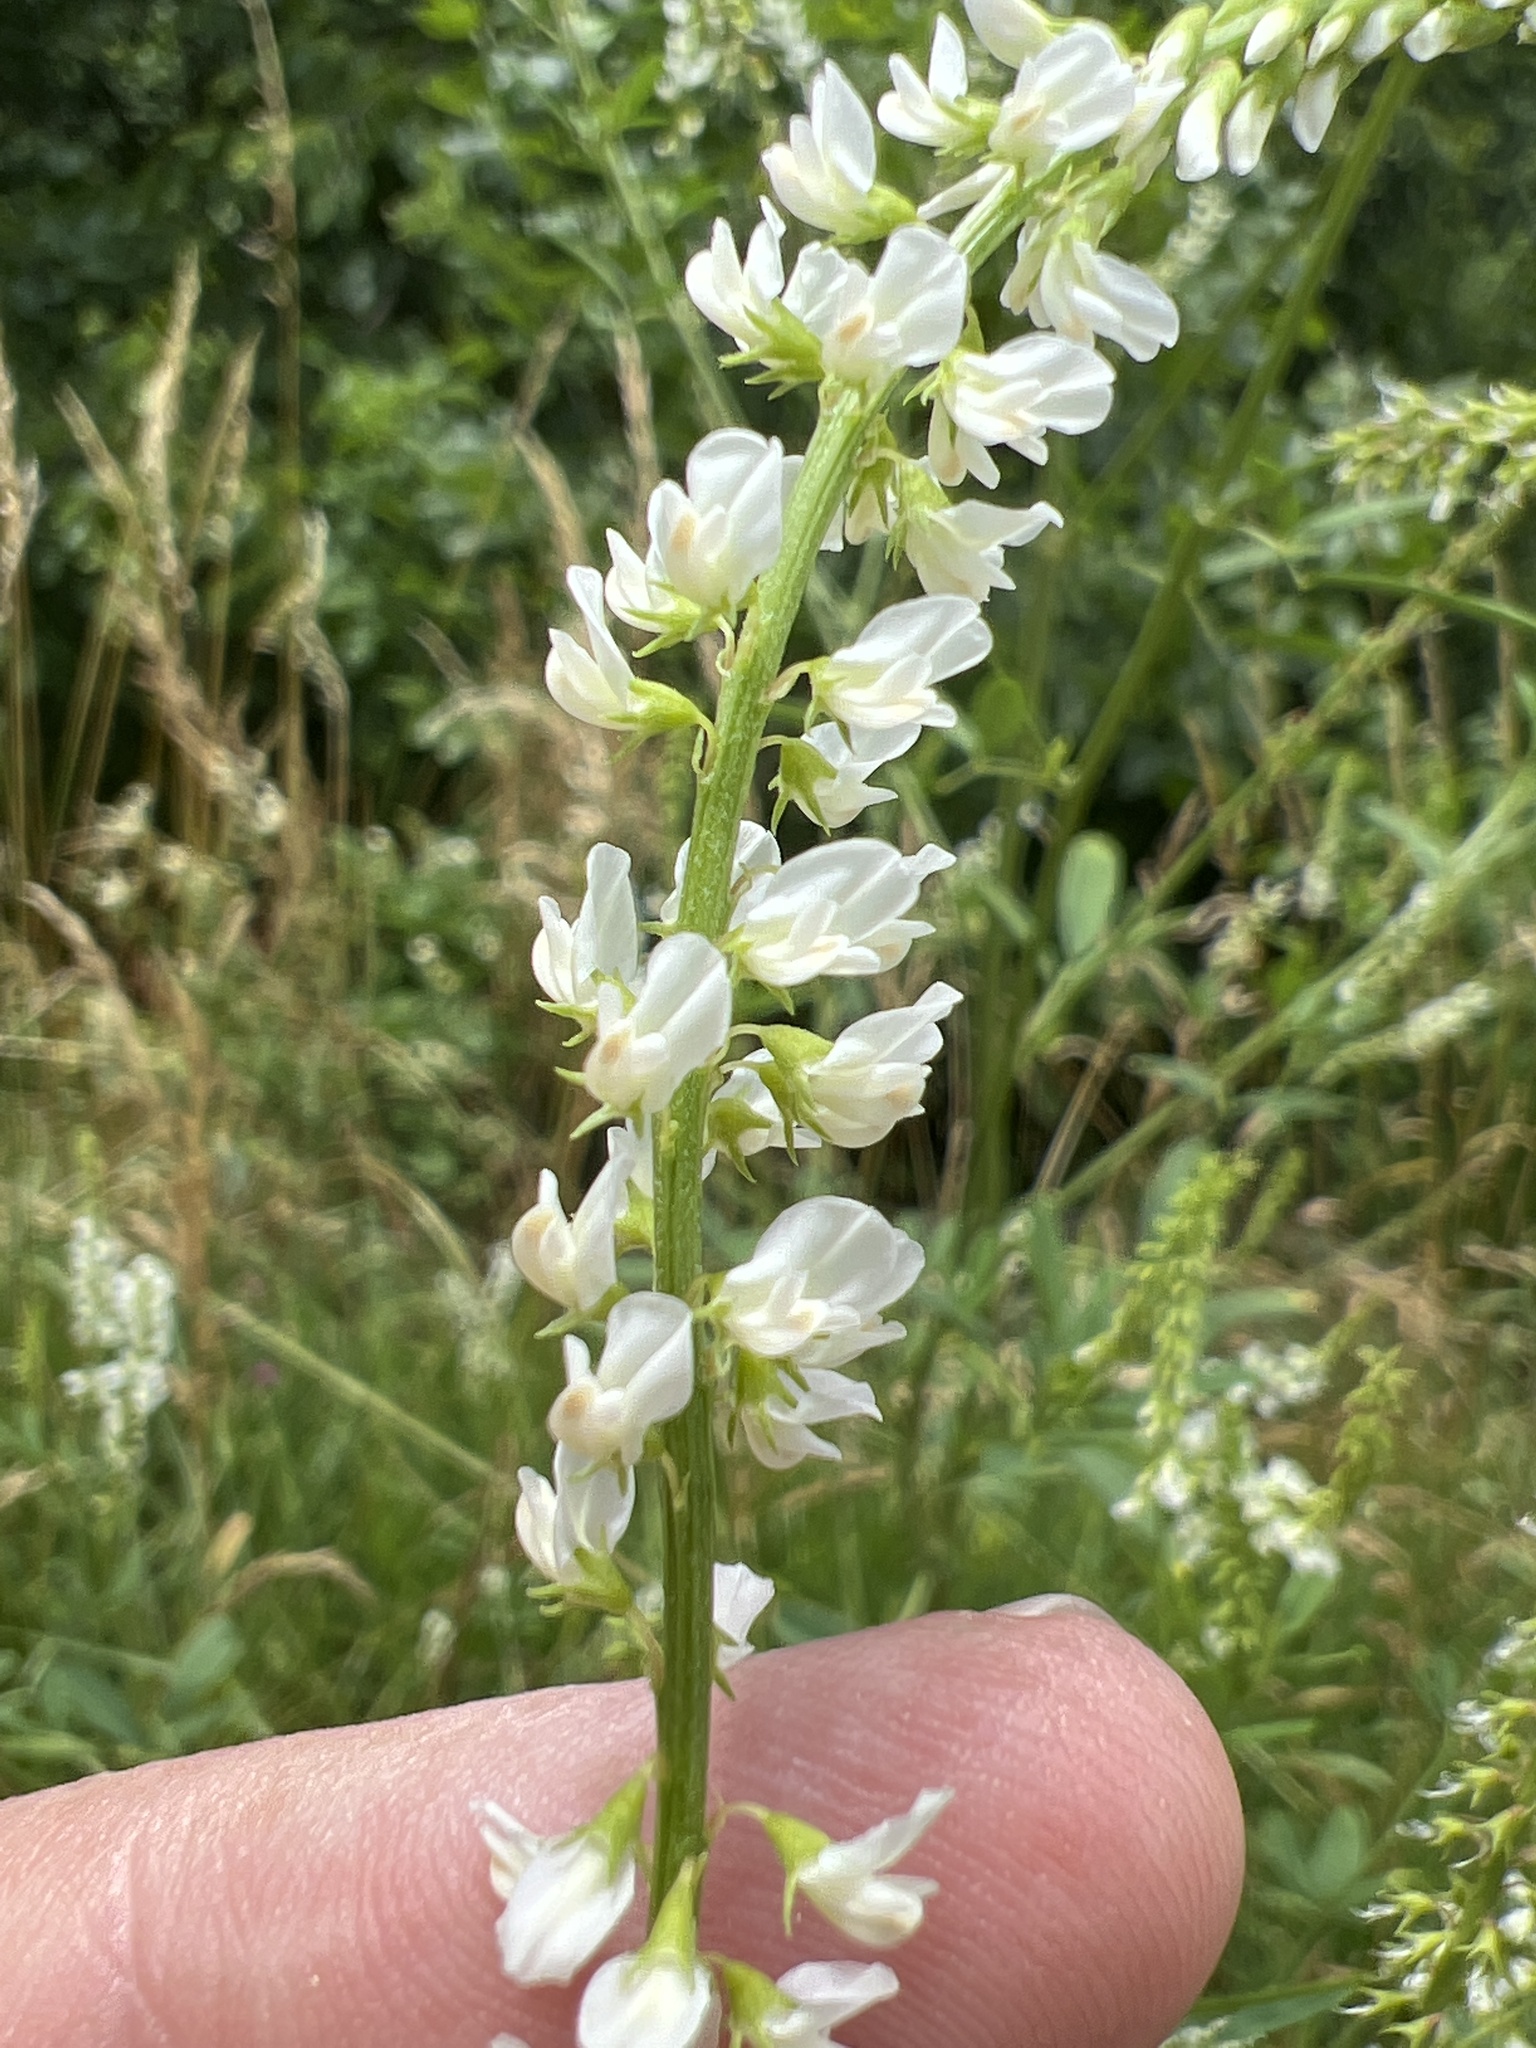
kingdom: Plantae
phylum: Tracheophyta
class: Magnoliopsida
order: Fabales
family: Fabaceae
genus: Melilotus
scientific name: Melilotus albus
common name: White melilot
